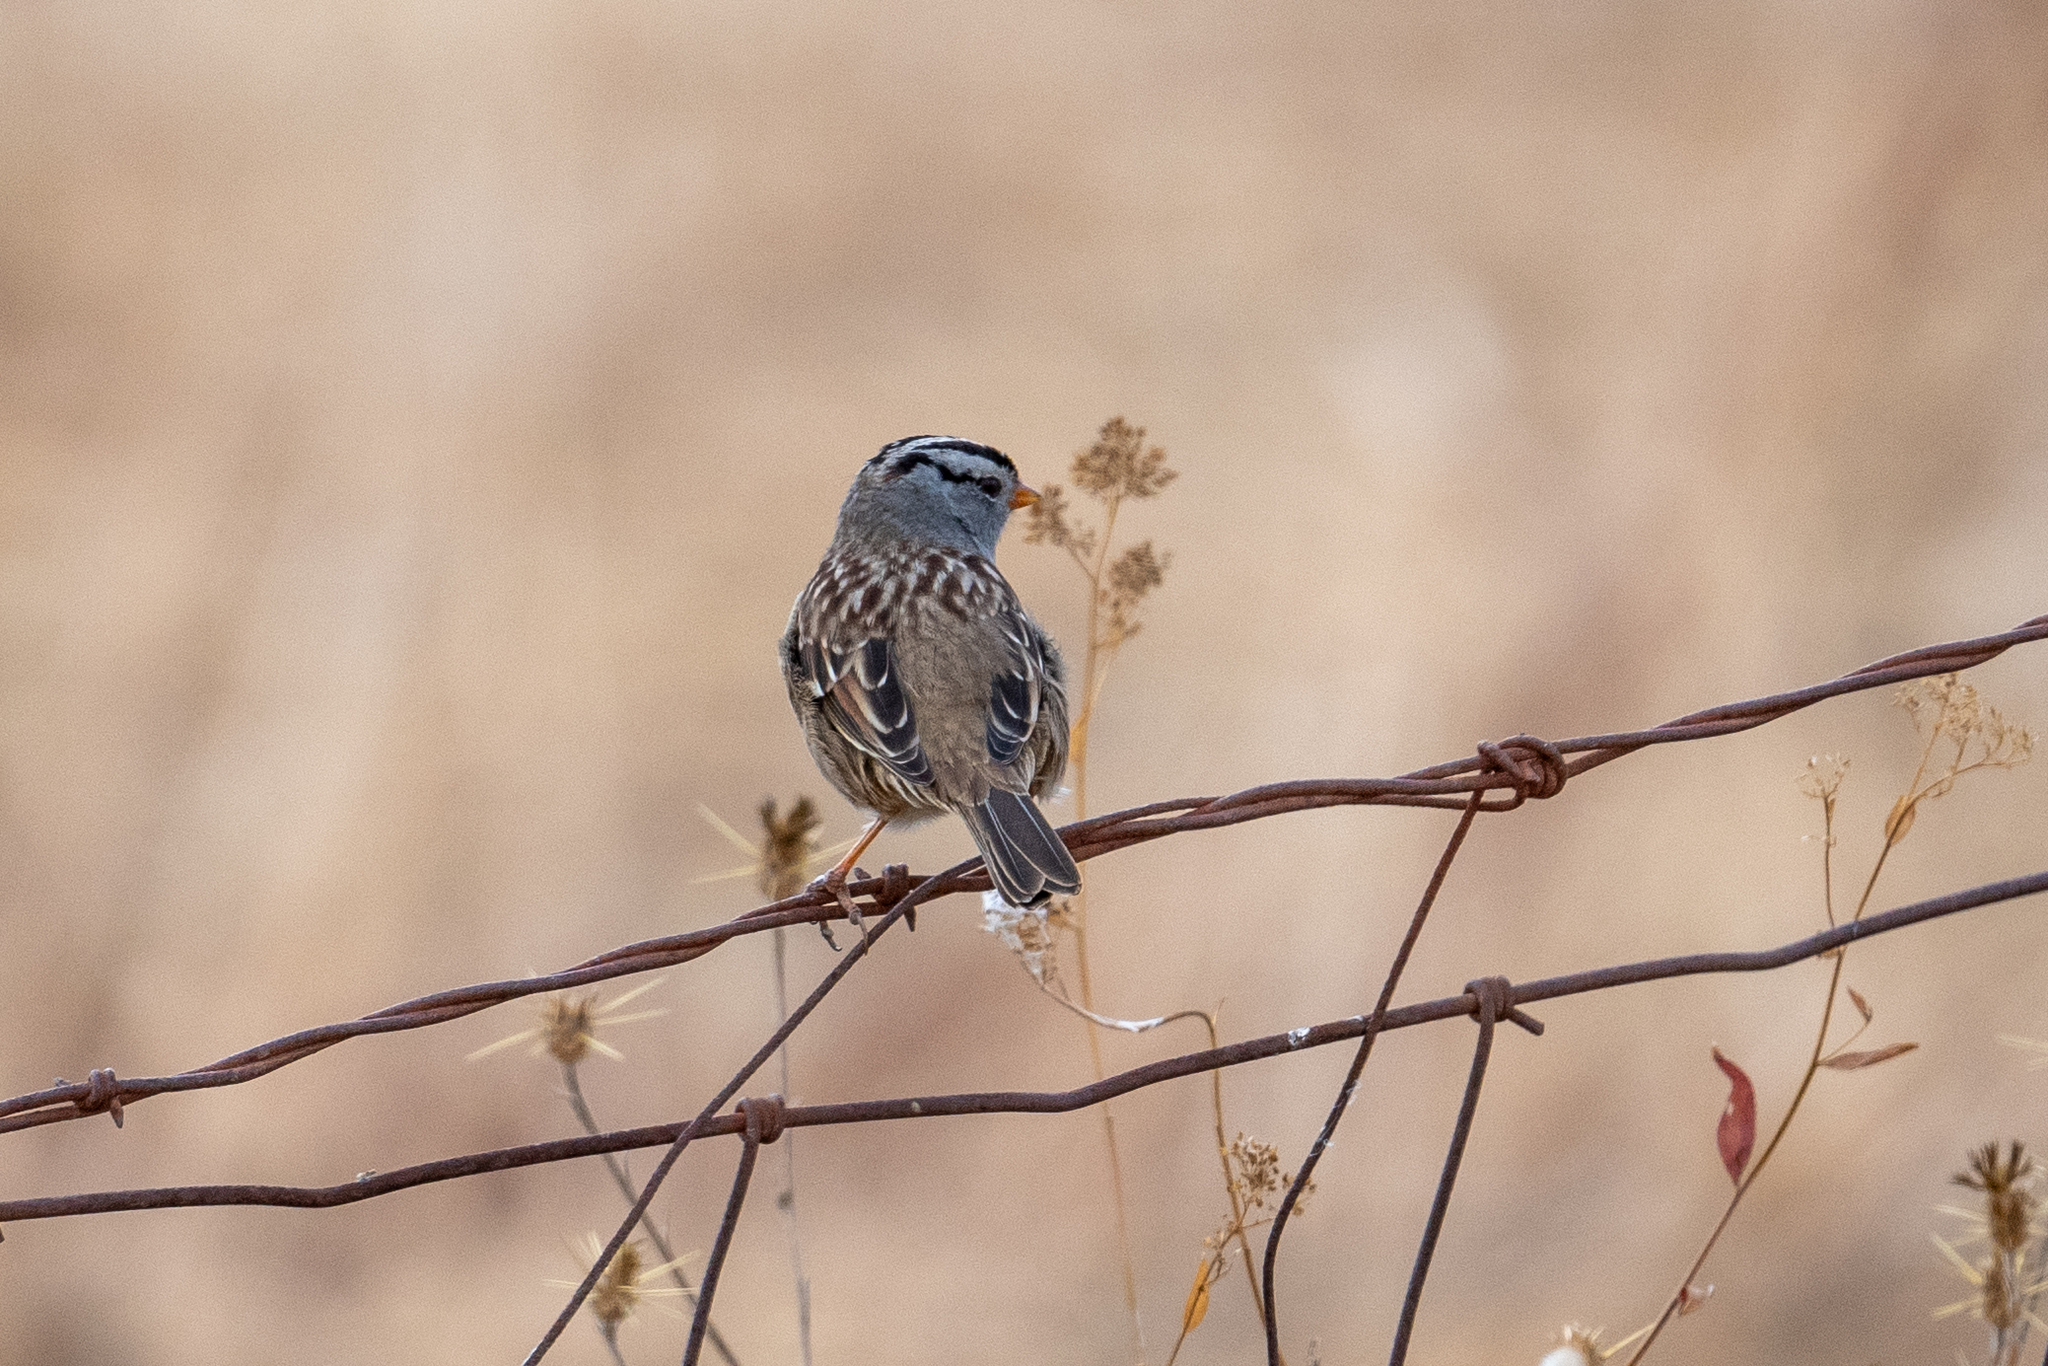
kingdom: Animalia
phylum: Chordata
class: Aves
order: Passeriformes
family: Passerellidae
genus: Zonotrichia
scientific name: Zonotrichia leucophrys
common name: White-crowned sparrow
